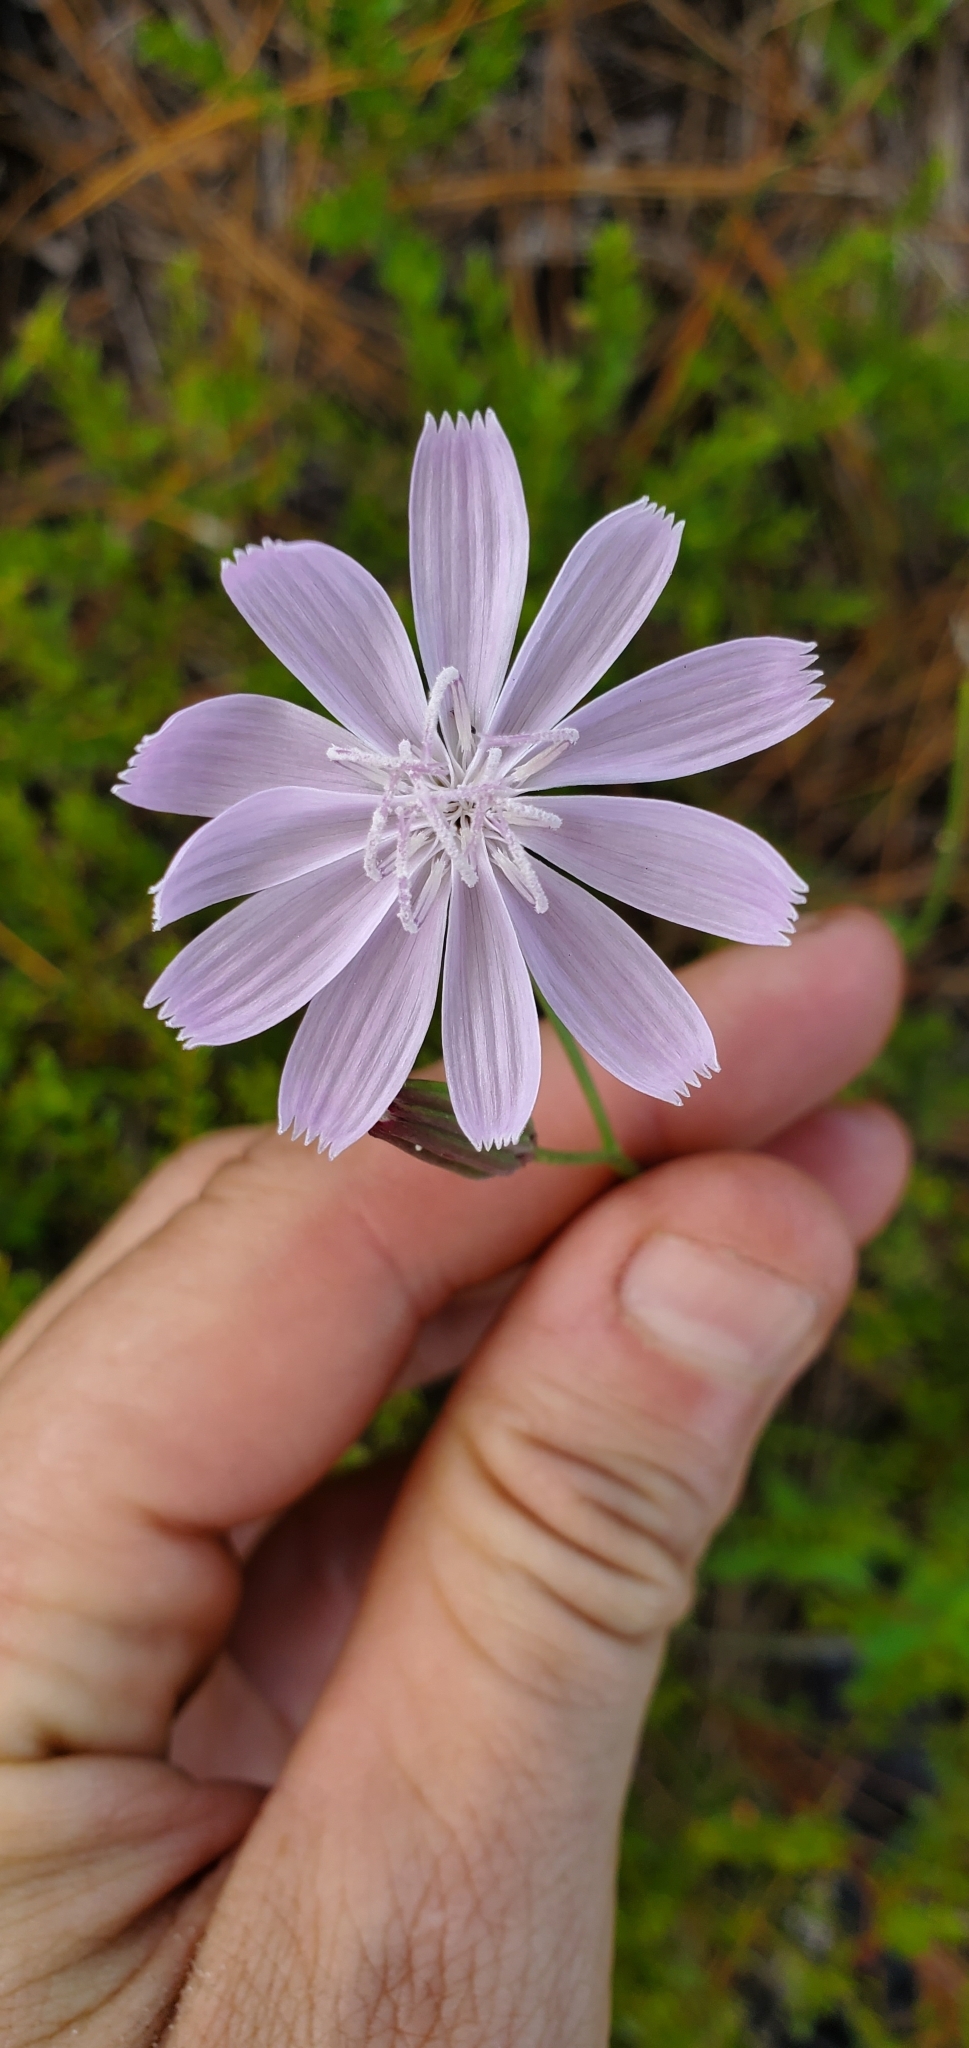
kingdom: Plantae
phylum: Tracheophyta
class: Magnoliopsida
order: Asterales
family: Asteraceae
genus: Lygodesmia
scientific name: Lygodesmia aphylla
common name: Rose-rush
